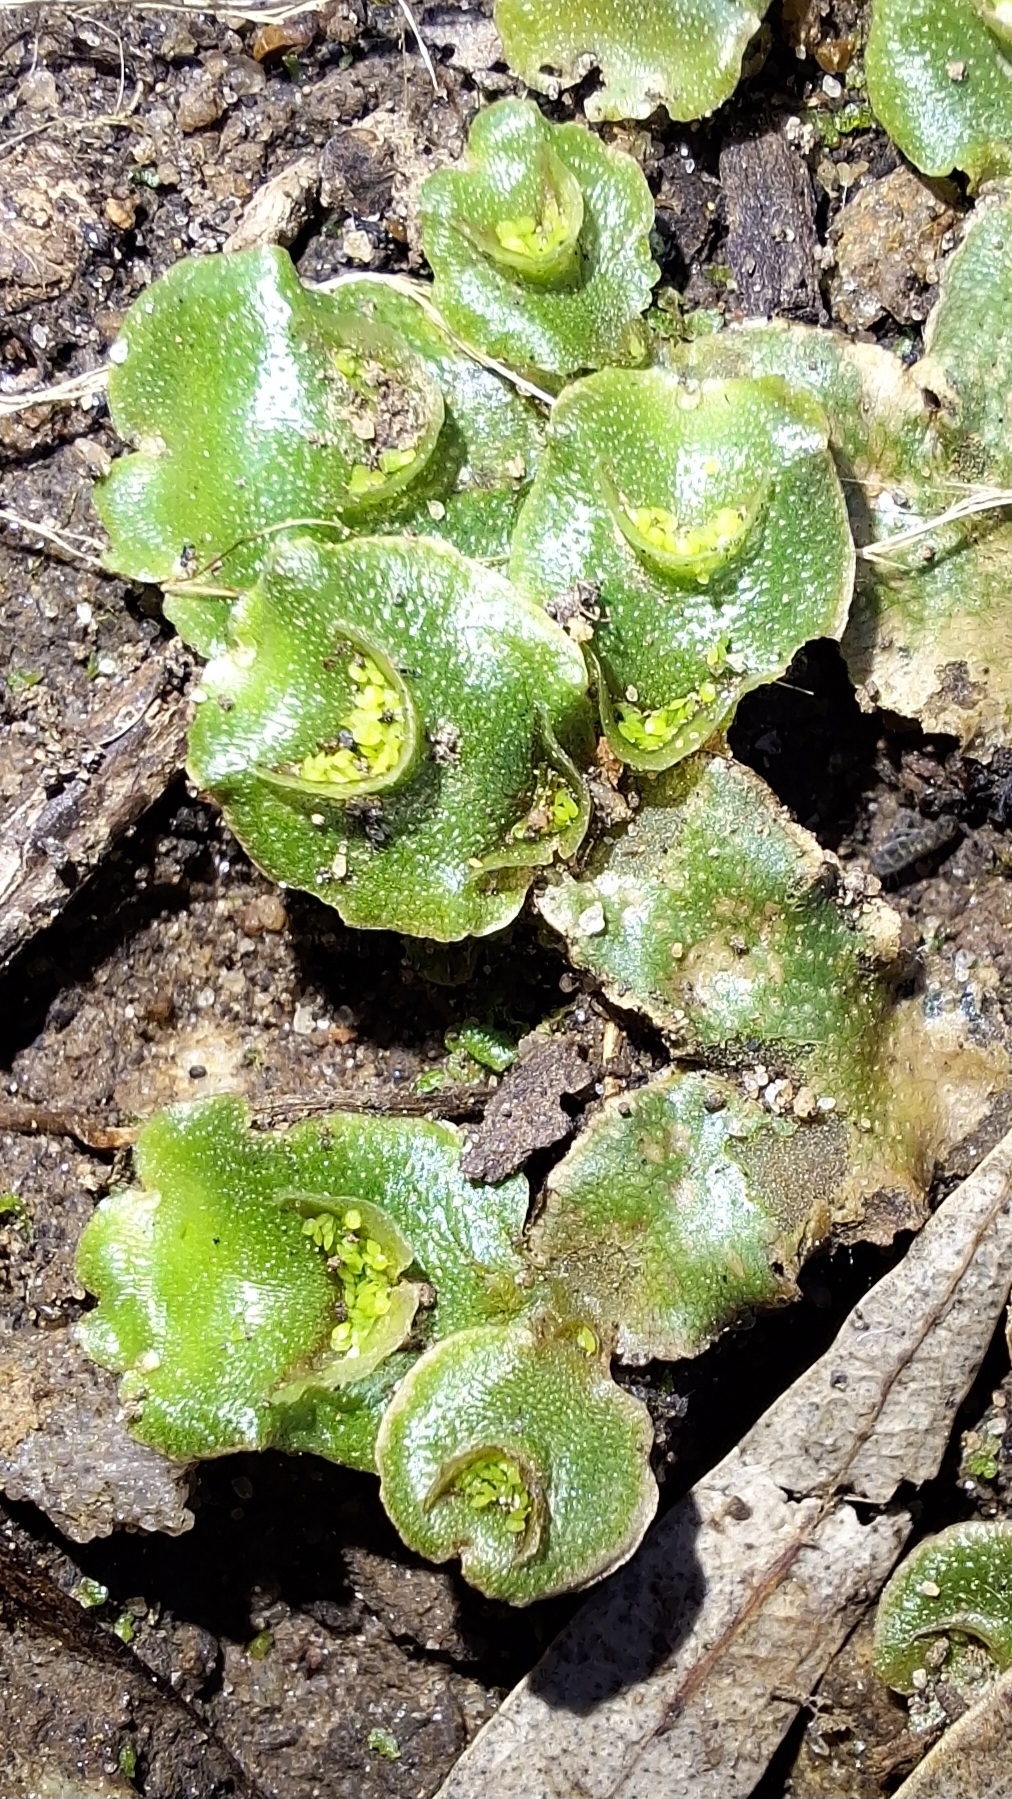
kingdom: Plantae
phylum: Marchantiophyta
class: Marchantiopsida
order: Lunulariales
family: Lunulariaceae
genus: Lunularia
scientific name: Lunularia cruciata
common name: Crescent-cup liverwort
